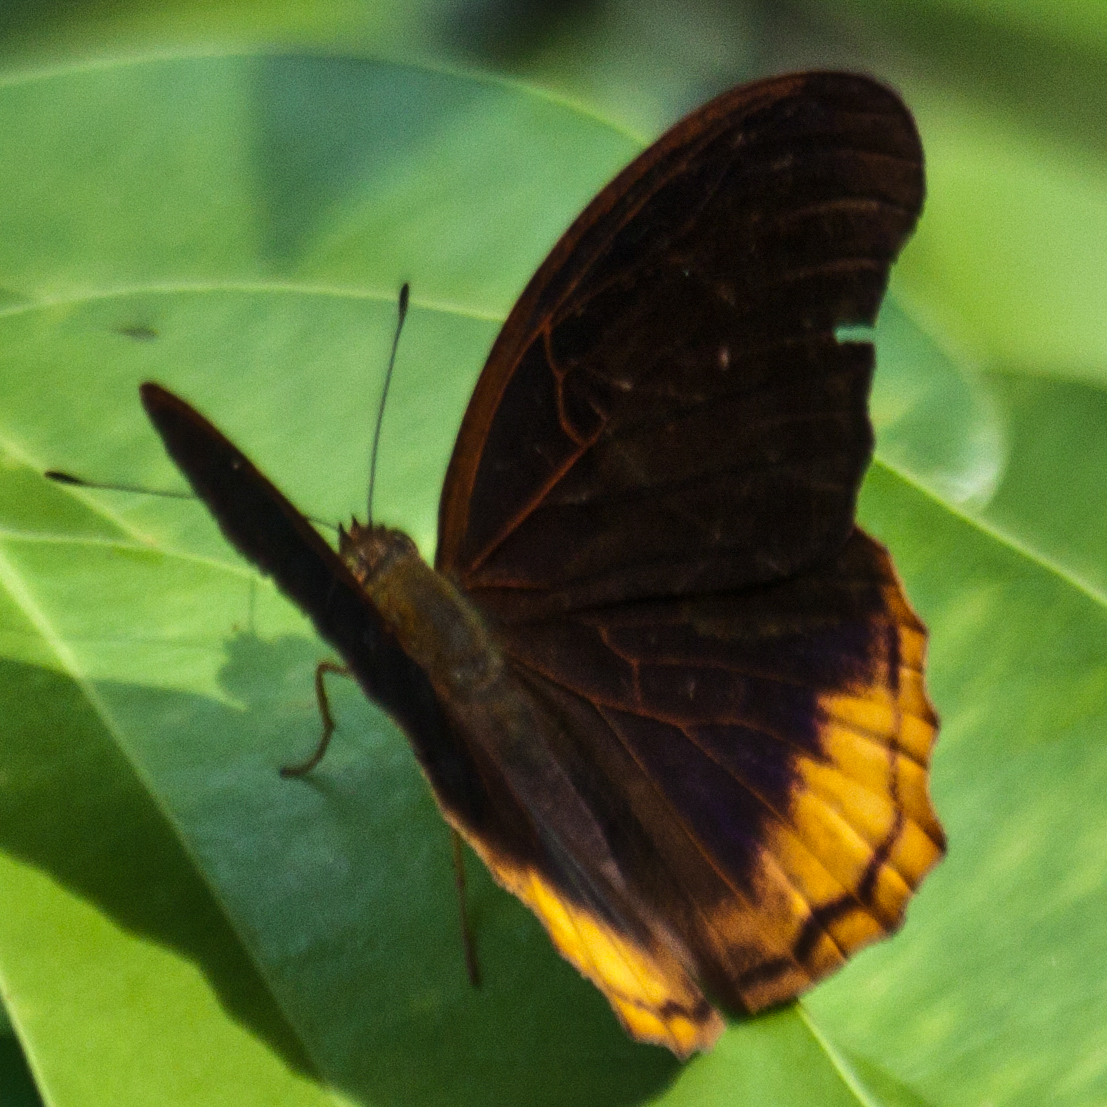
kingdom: Animalia
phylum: Arthropoda
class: Insecta
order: Lepidoptera
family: Nymphalidae
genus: Terinos
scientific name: Terinos terpander
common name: Royal assyrian
